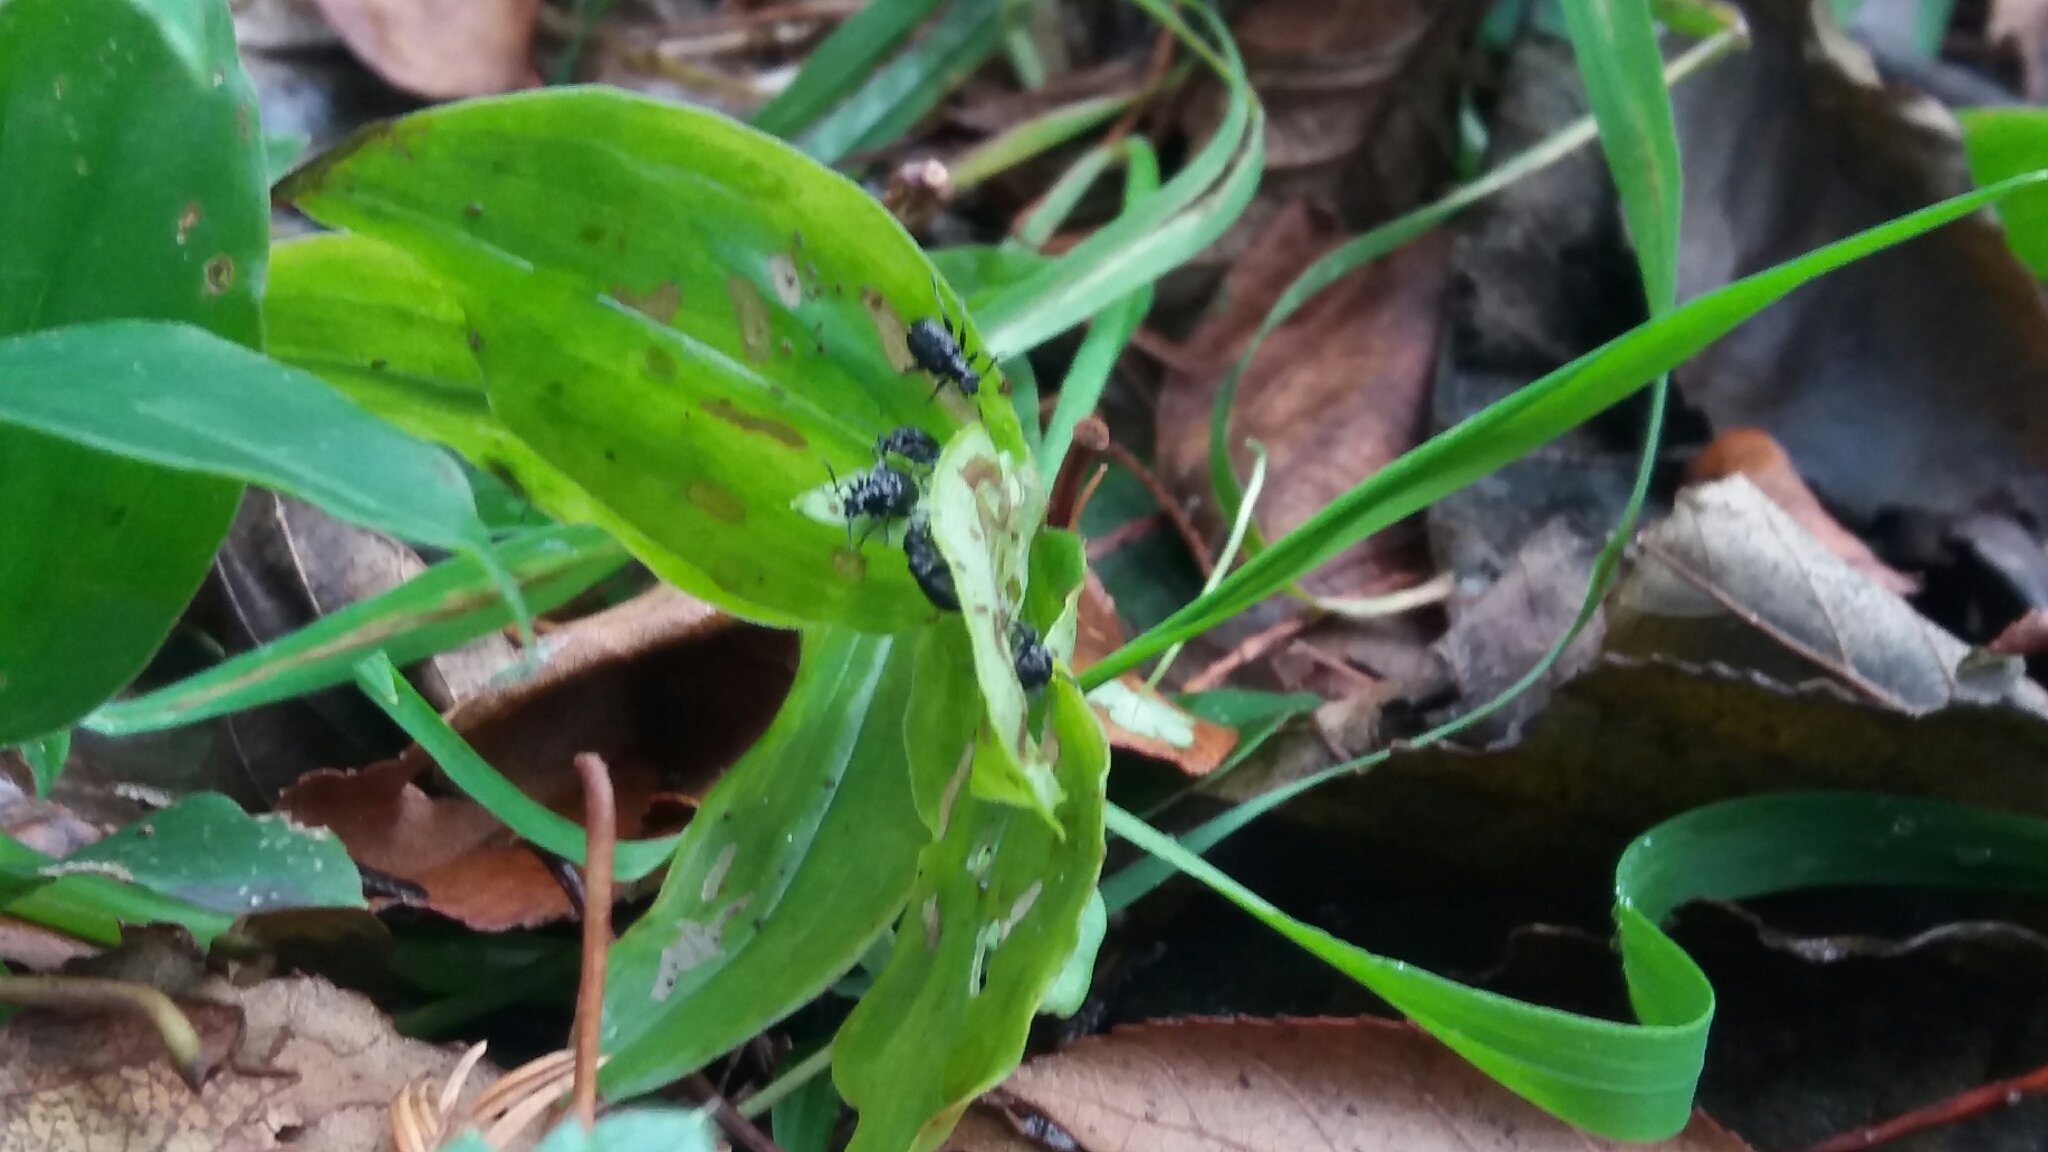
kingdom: Plantae
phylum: Tracheophyta
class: Liliopsida
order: Commelinales
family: Commelinaceae
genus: Tradescantia
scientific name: Tradescantia fluminensis
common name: Wandering-jew
